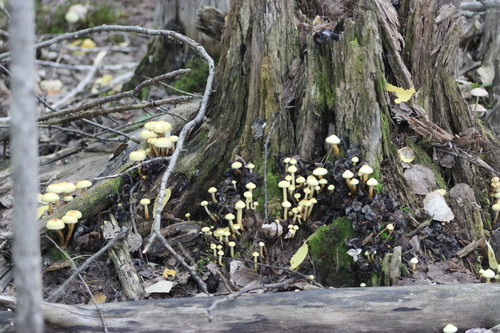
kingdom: Fungi
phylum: Basidiomycota
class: Agaricomycetes
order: Agaricales
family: Hymenogastraceae
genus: Flammula
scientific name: Flammula alnicola
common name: Alder scalycap
